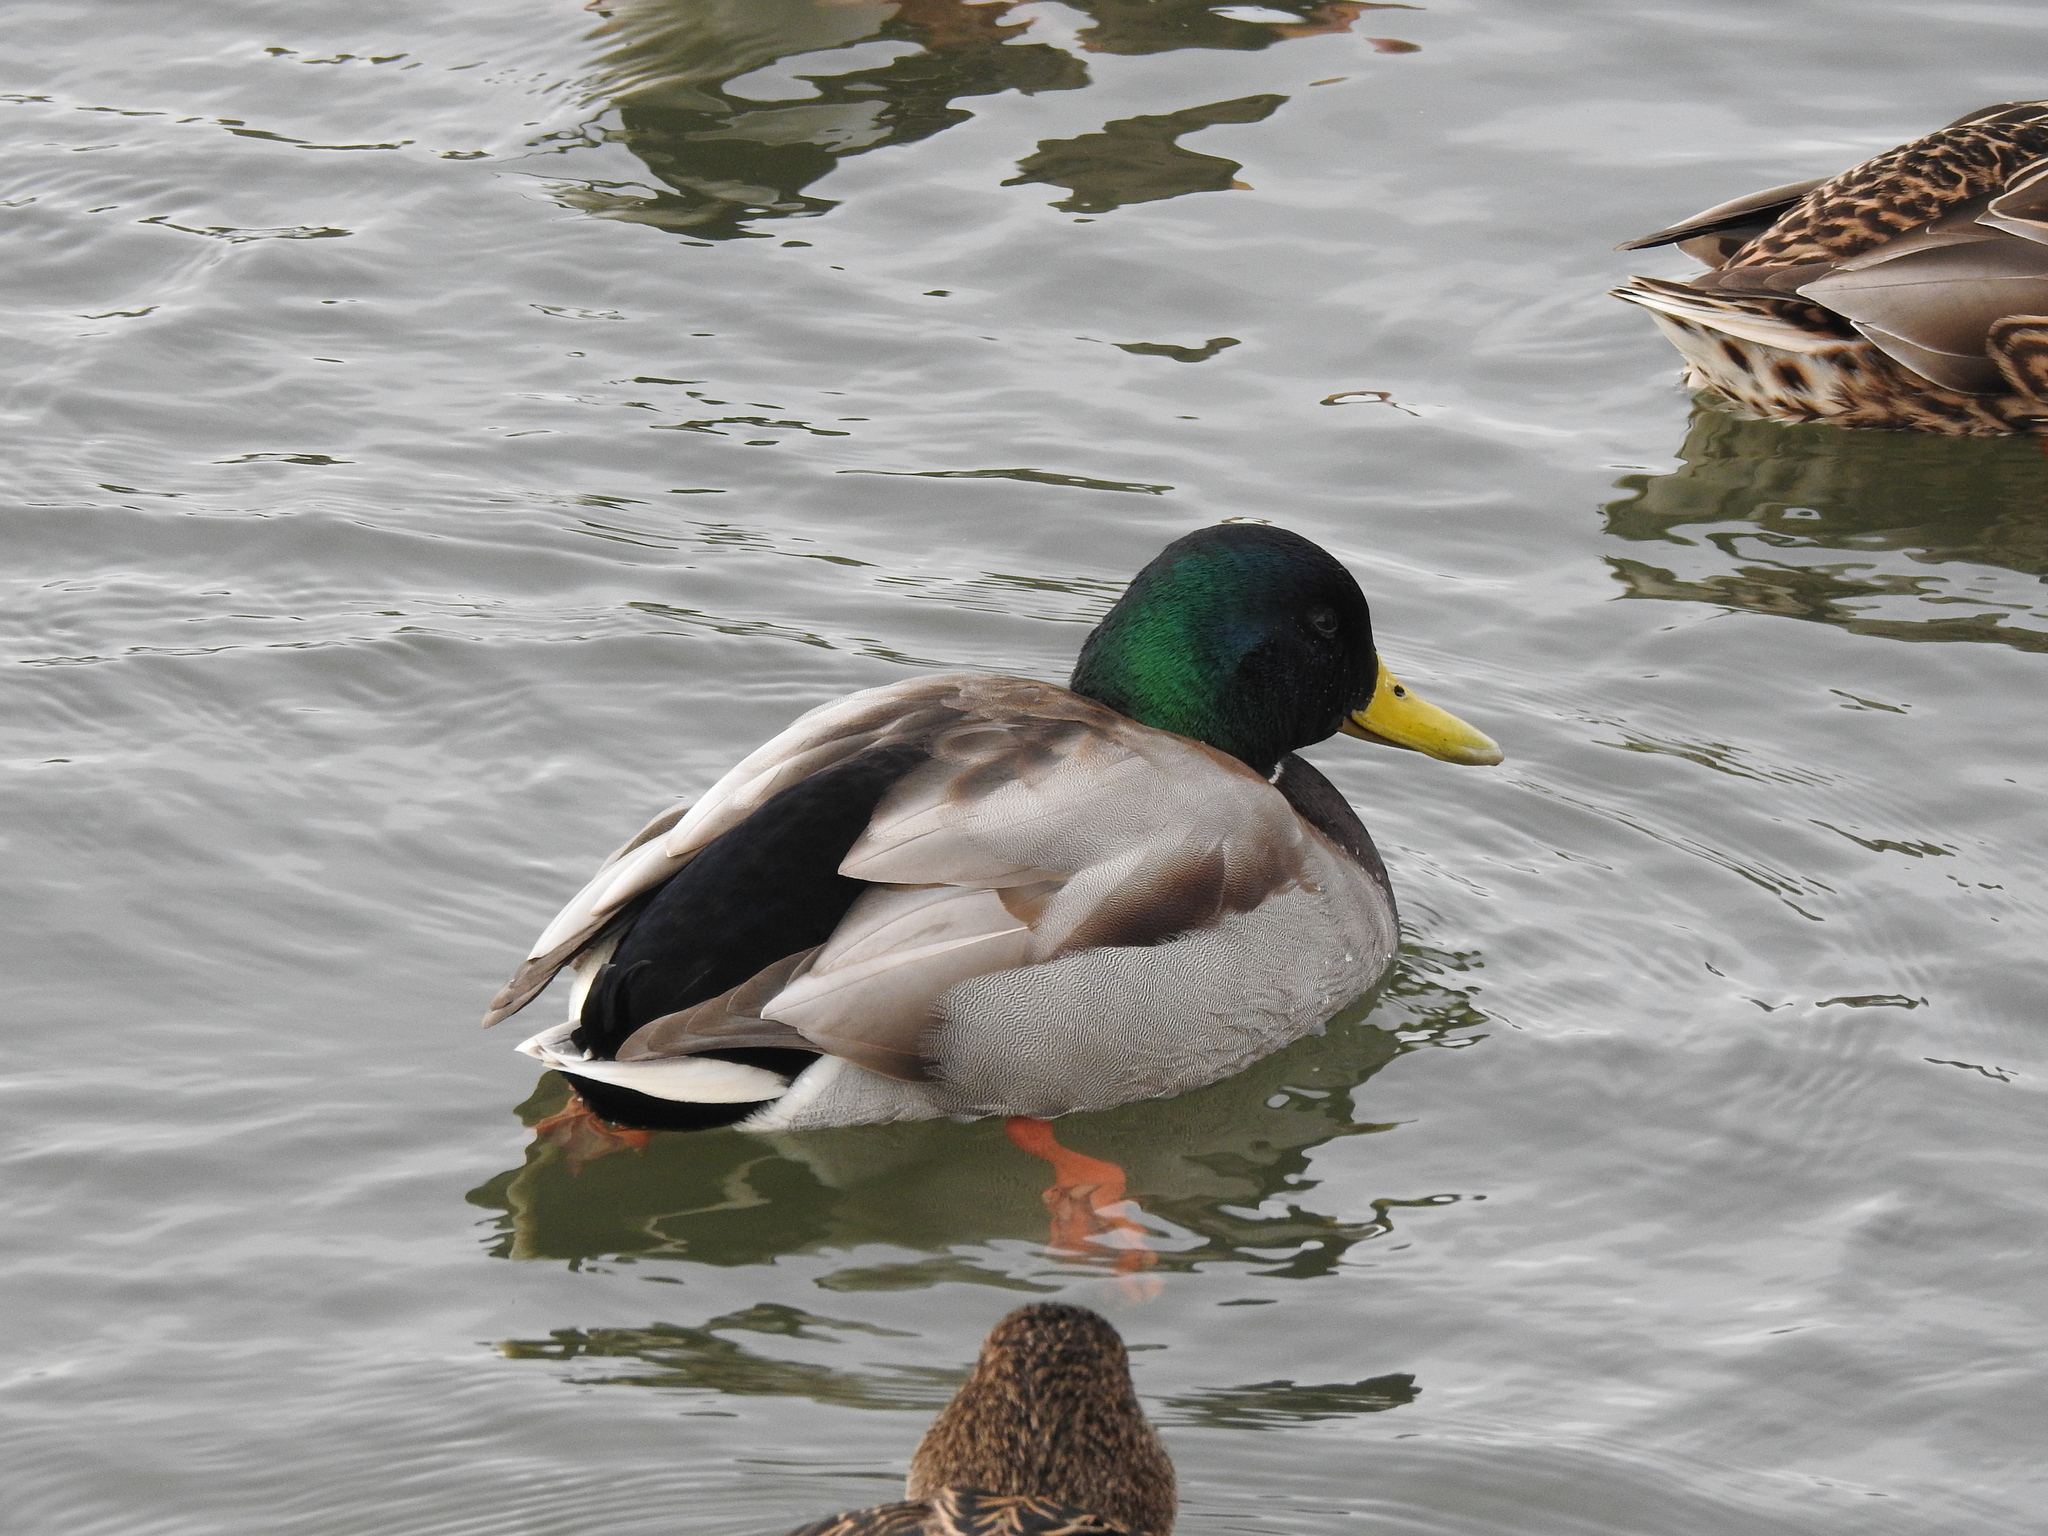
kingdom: Animalia
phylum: Chordata
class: Aves
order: Anseriformes
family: Anatidae
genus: Anas
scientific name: Anas platyrhynchos
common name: Mallard
